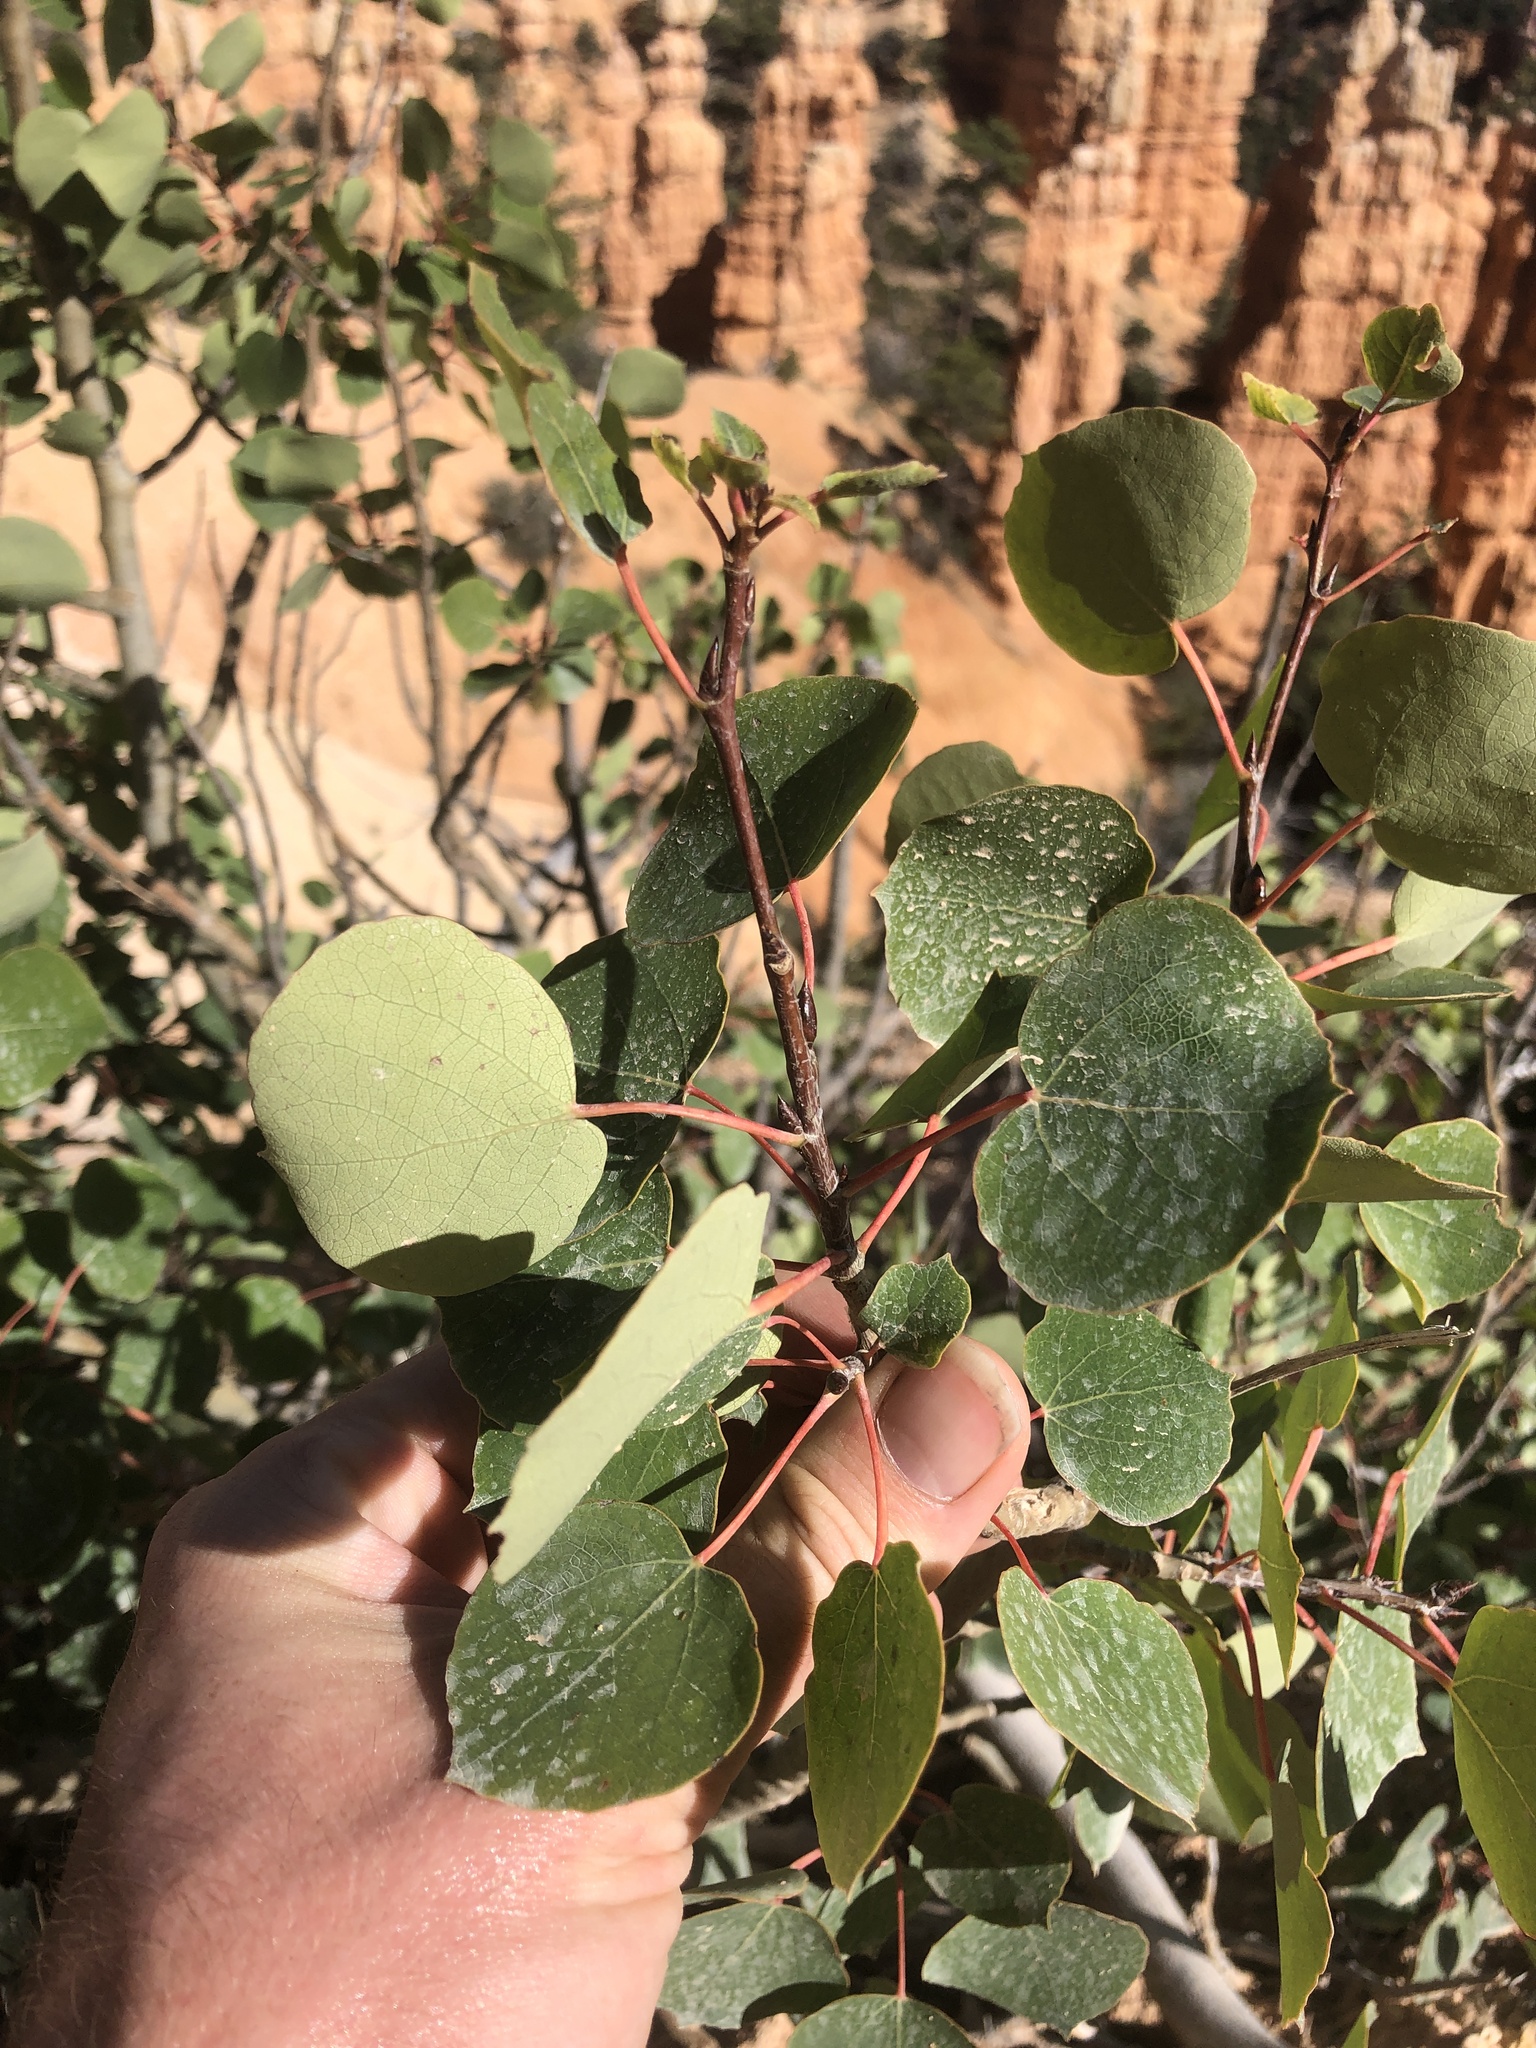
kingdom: Plantae
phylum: Tracheophyta
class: Magnoliopsida
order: Malpighiales
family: Salicaceae
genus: Populus
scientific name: Populus tremuloides
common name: Quaking aspen
